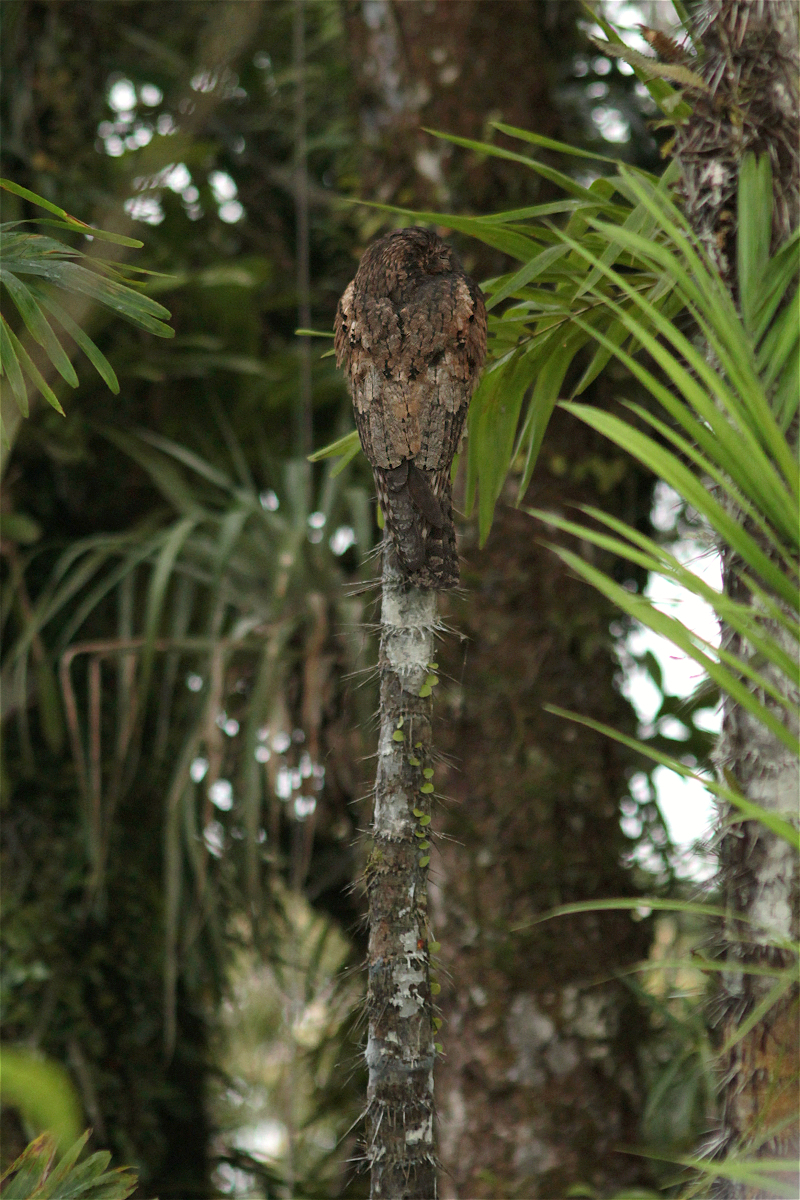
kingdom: Animalia
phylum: Chordata
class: Aves
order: Nyctibiiformes
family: Nyctibiidae
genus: Nyctibius
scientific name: Nyctibius griseus
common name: Common potoo
